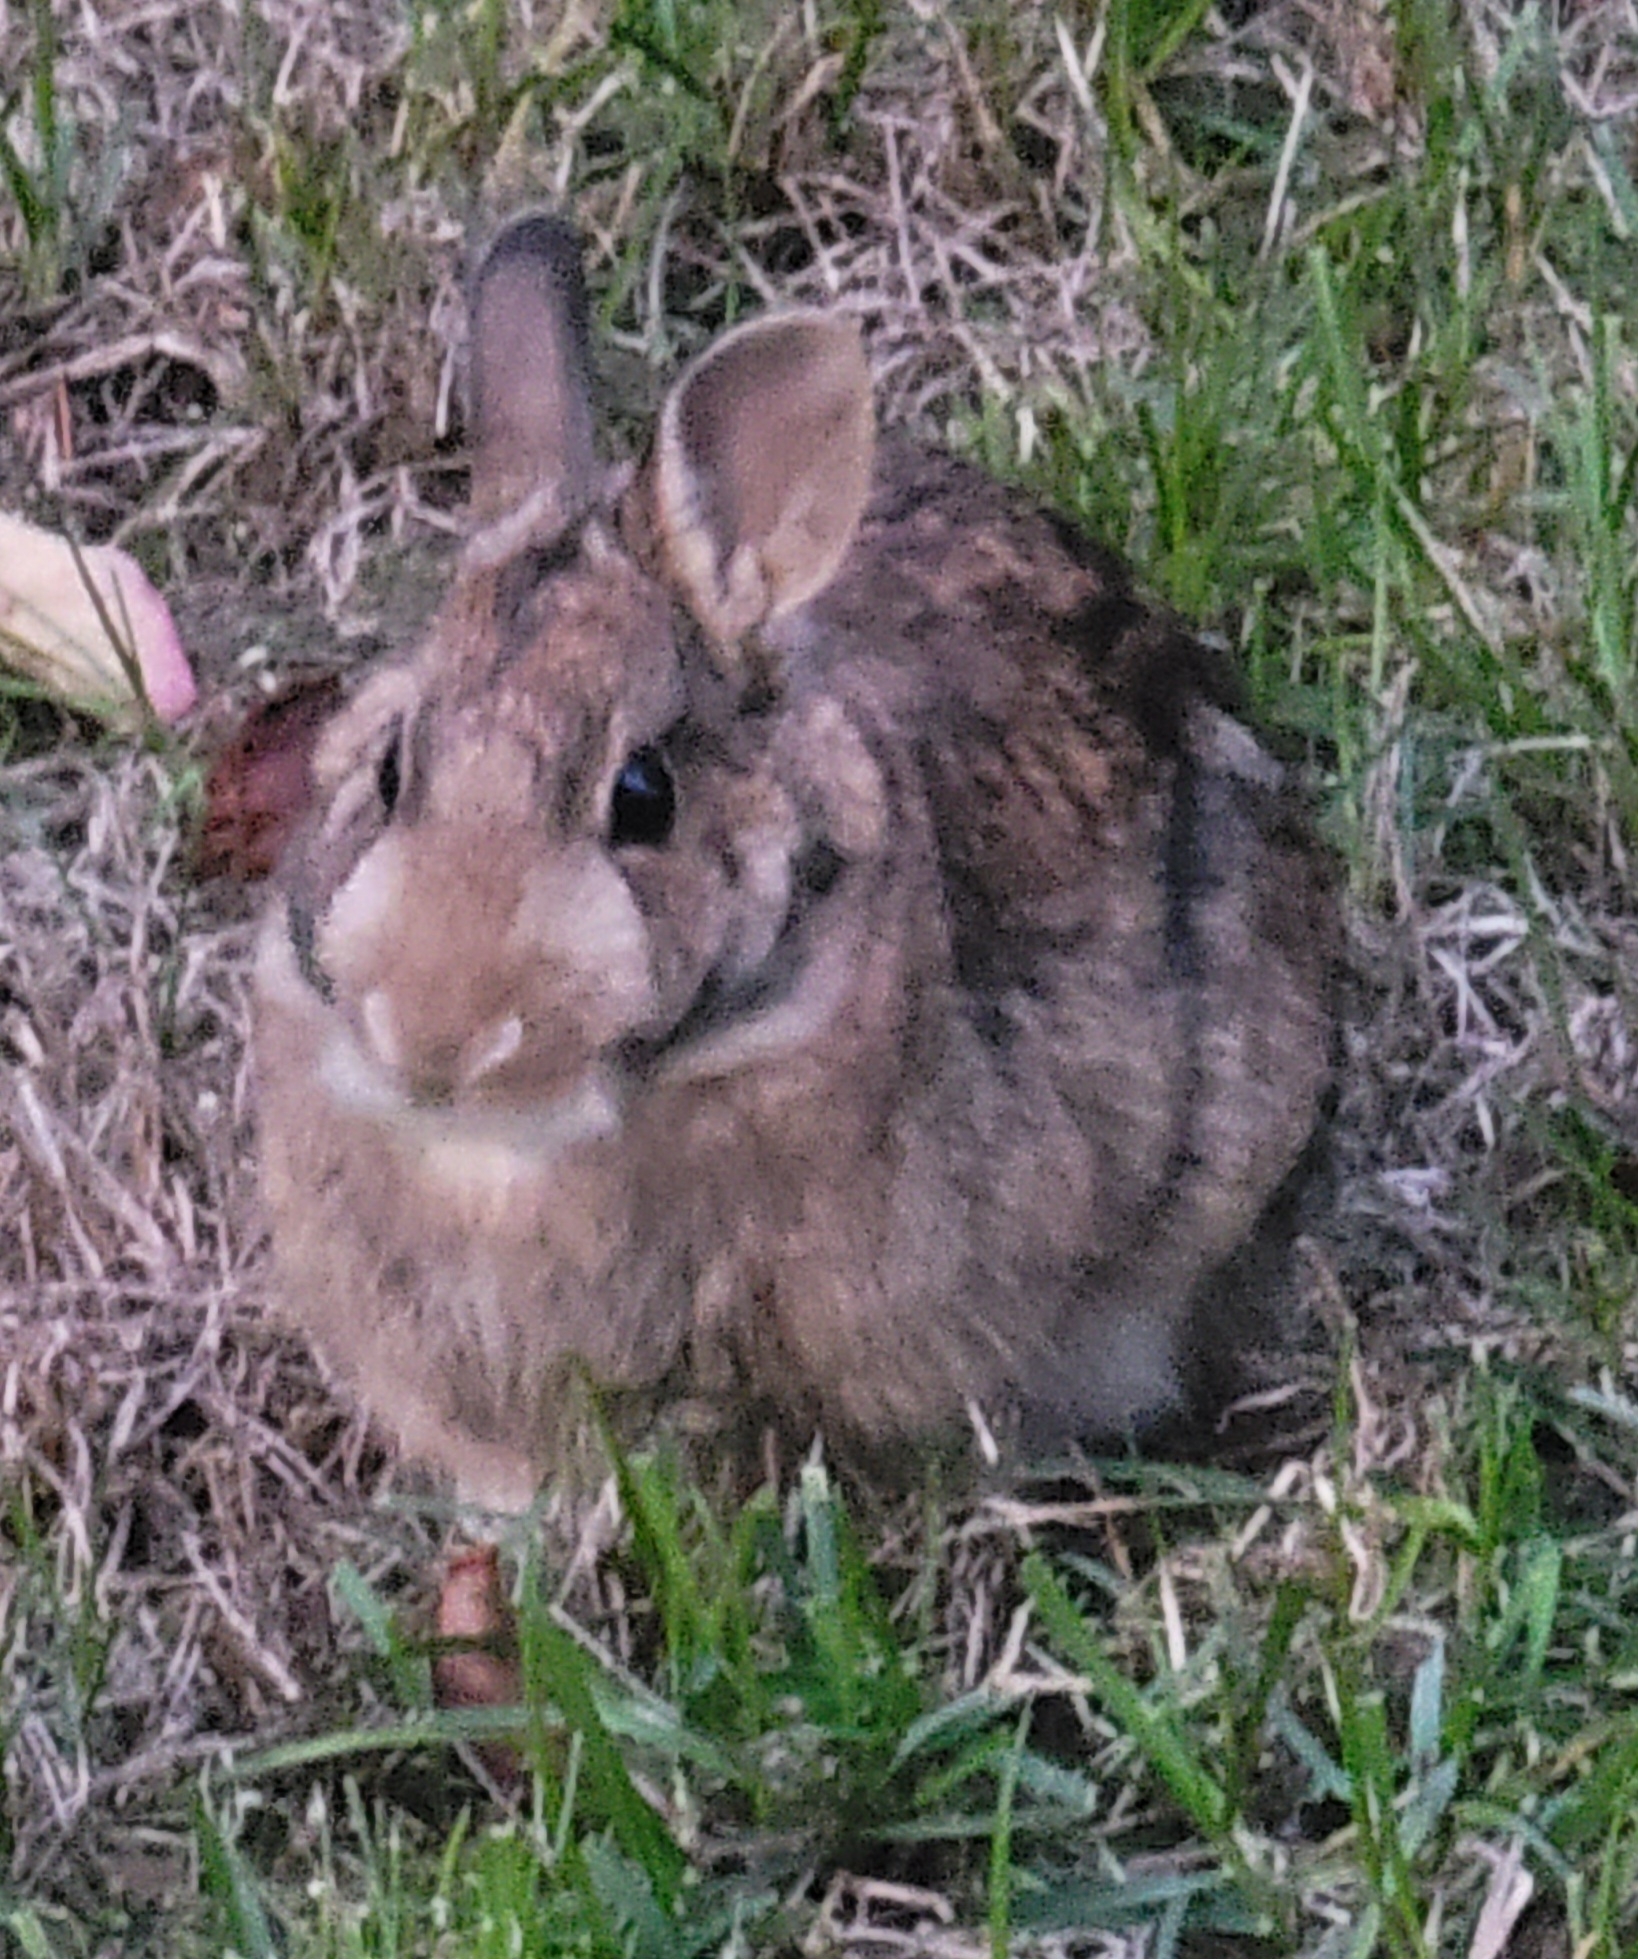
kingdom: Animalia
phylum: Chordata
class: Mammalia
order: Lagomorpha
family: Leporidae
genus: Sylvilagus
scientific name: Sylvilagus floridanus
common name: Eastern cottontail
